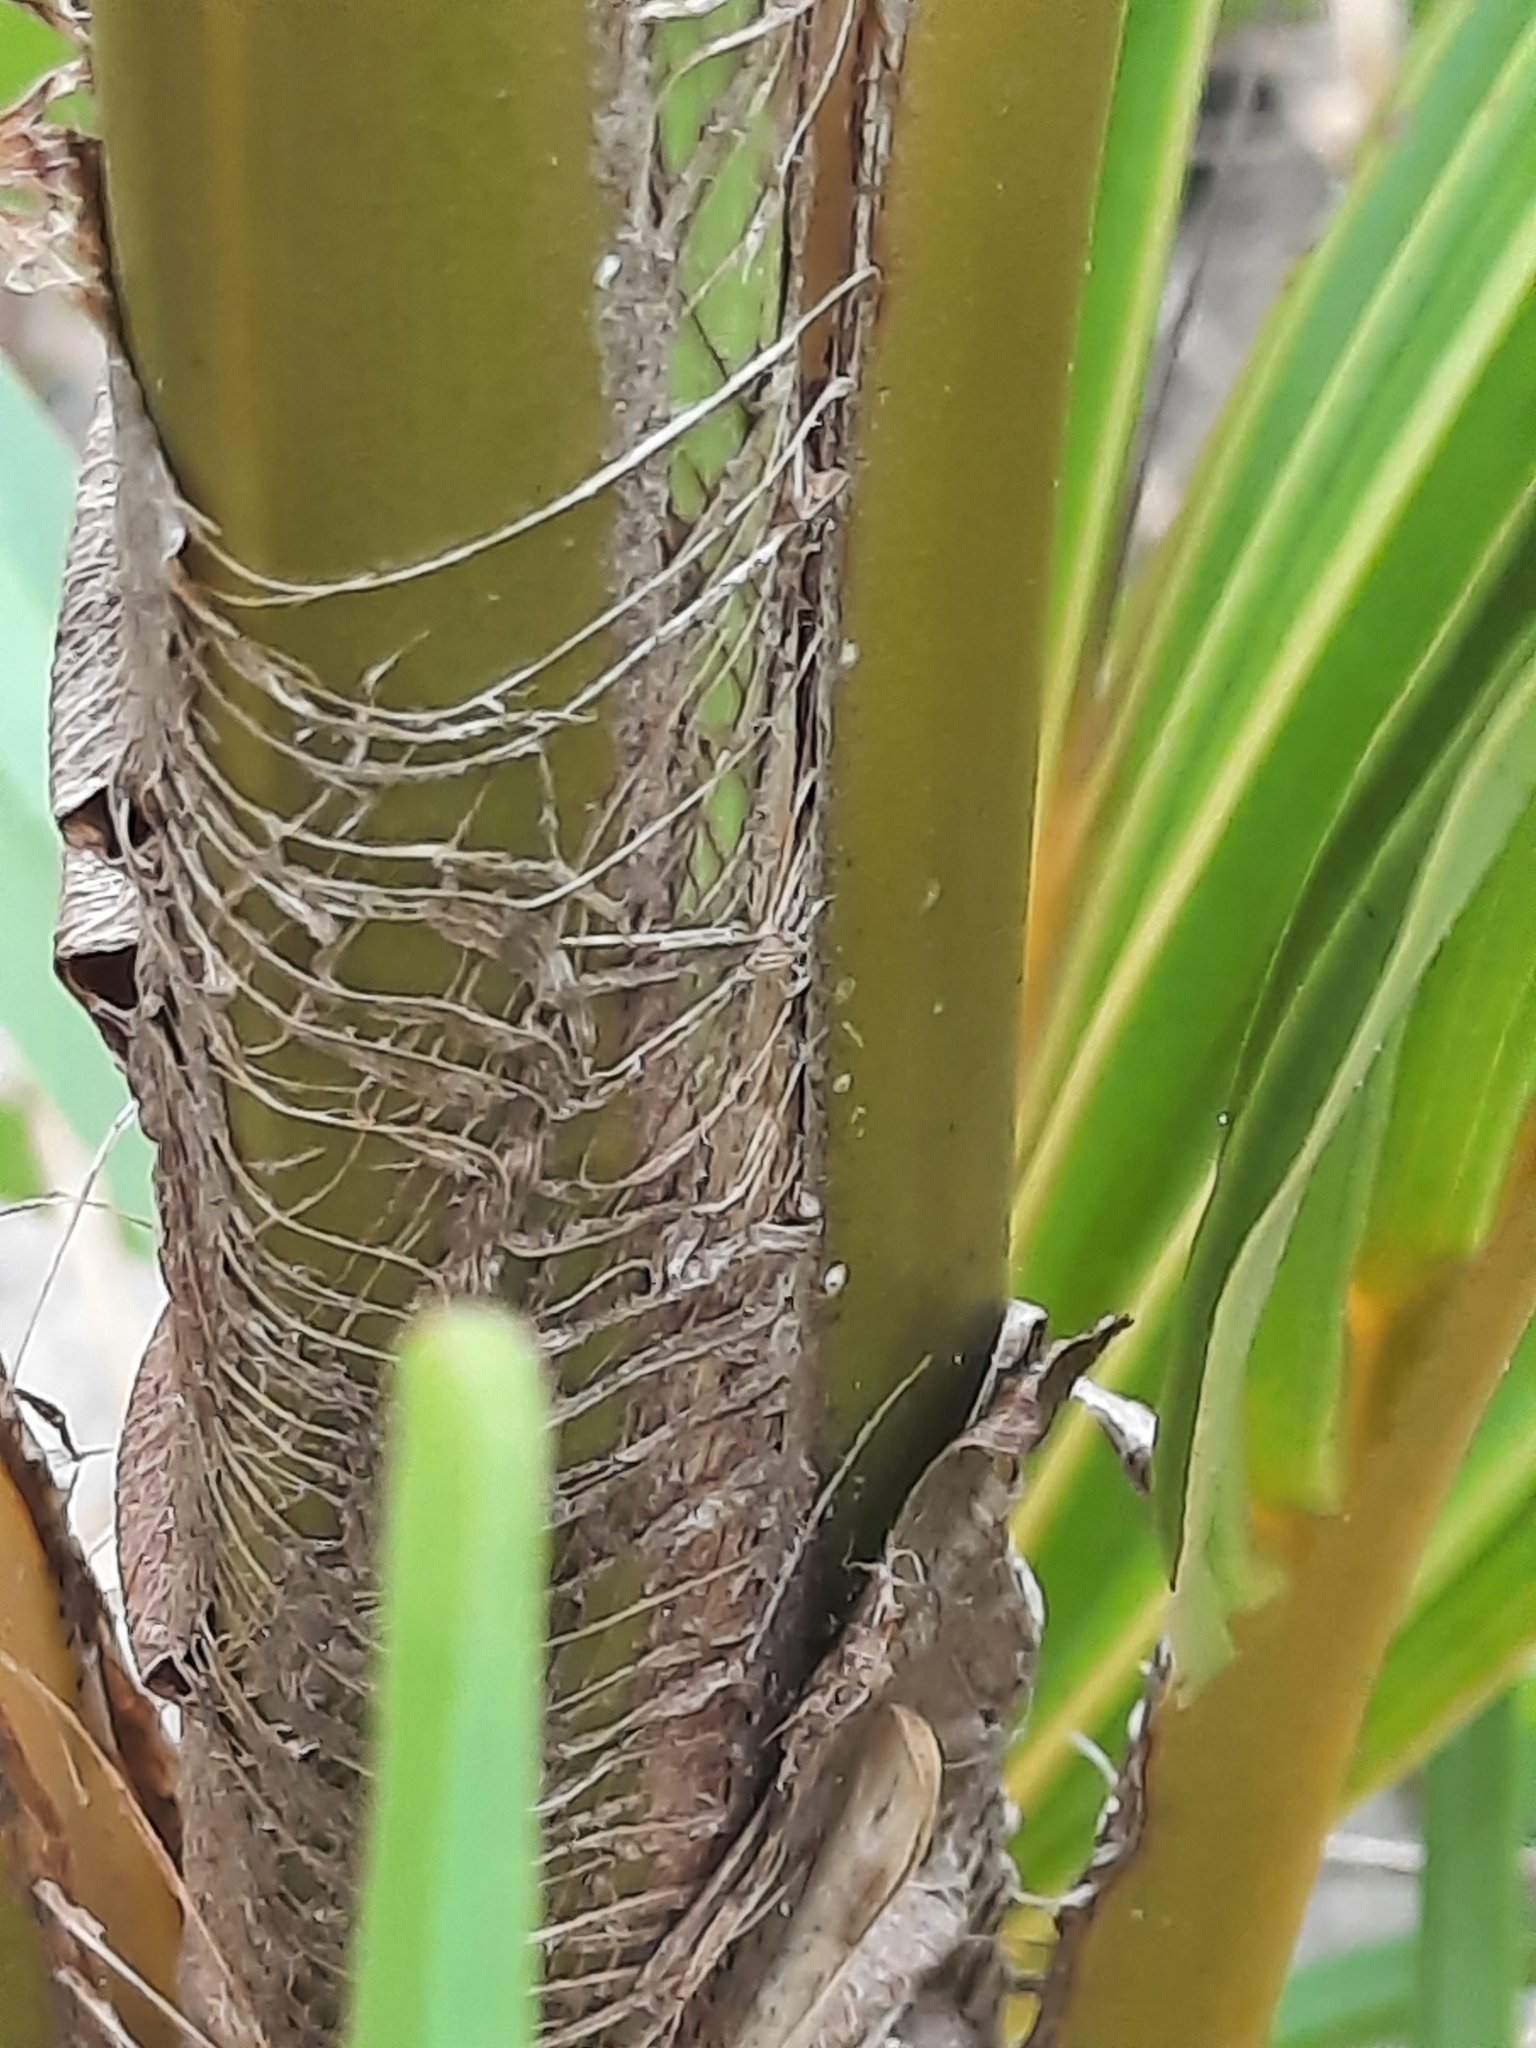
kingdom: Plantae
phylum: Tracheophyta
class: Liliopsida
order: Arecales
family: Arecaceae
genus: Cocos
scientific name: Cocos nucifera
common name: Coconut palm
